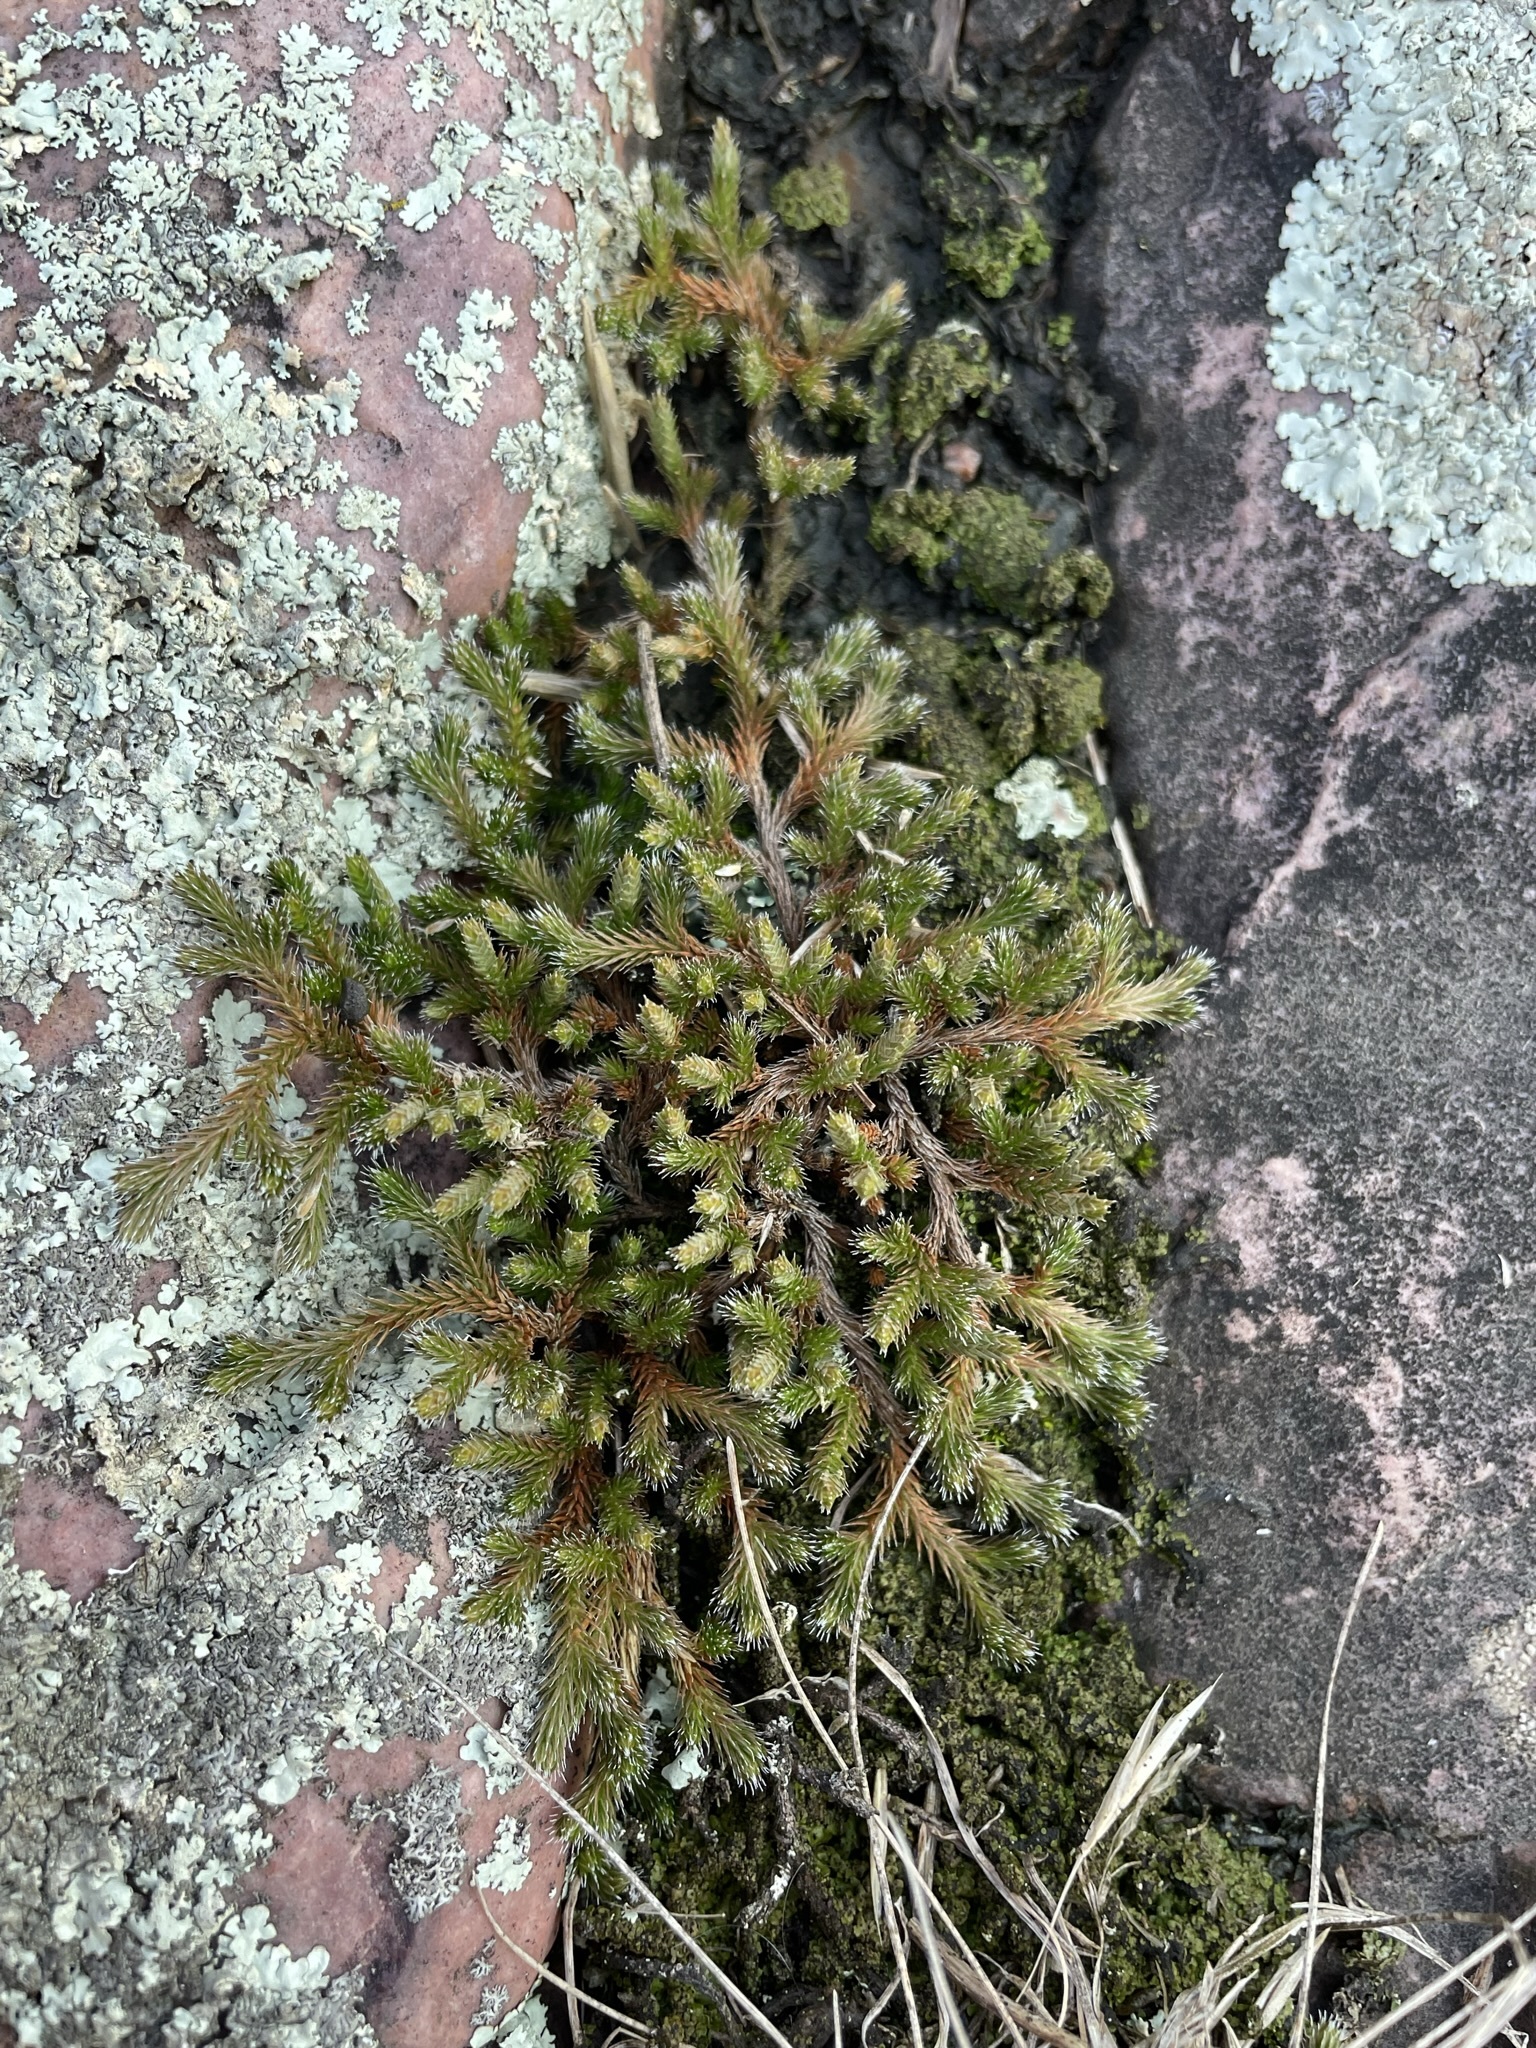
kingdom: Plantae
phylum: Tracheophyta
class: Lycopodiopsida
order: Selaginellales
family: Selaginellaceae
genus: Selaginella
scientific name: Selaginella rupestris
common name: Dwarf spikemoss
